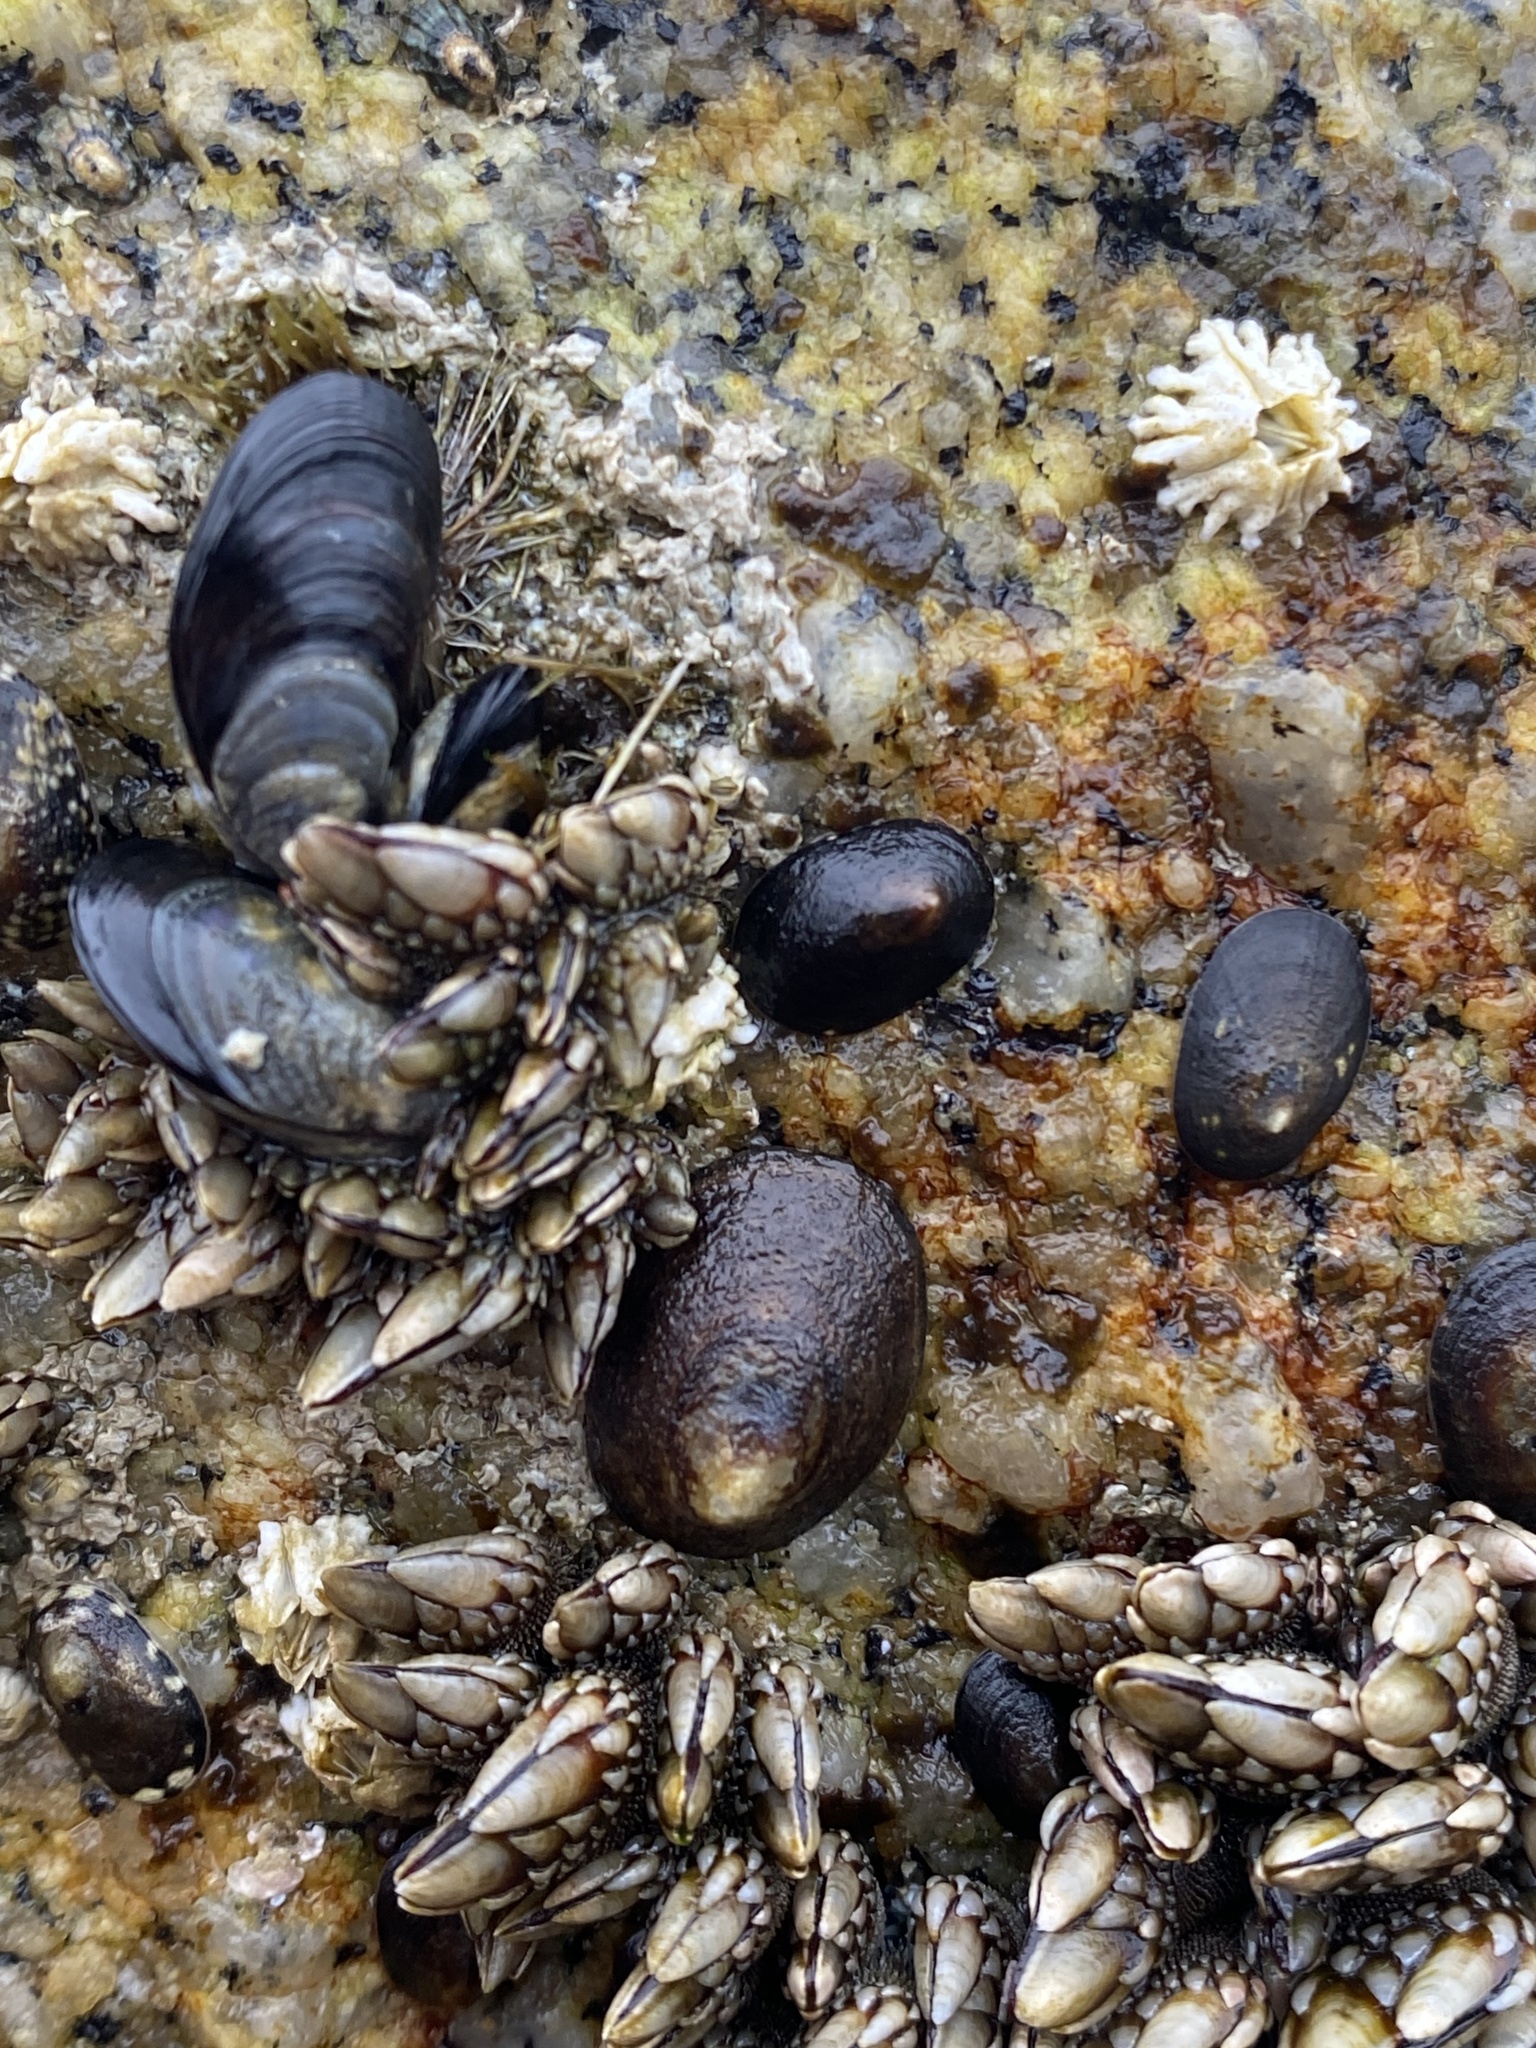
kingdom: Animalia
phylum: Mollusca
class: Gastropoda
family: Lottiidae
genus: Lottia
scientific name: Lottia pelta
